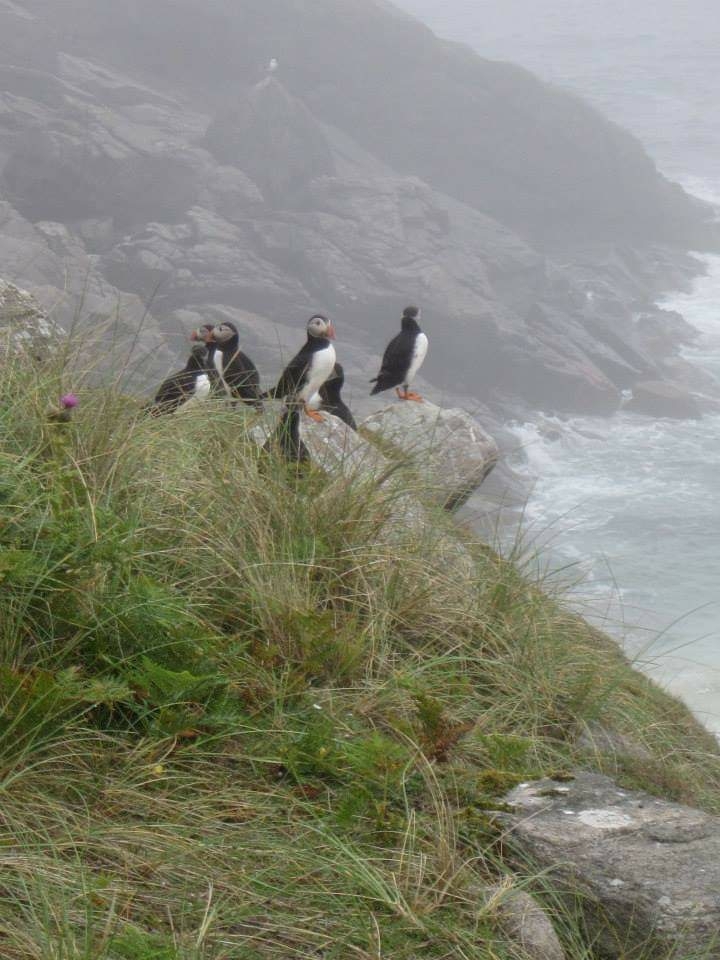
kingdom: Animalia
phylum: Chordata
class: Aves
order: Charadriiformes
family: Alcidae
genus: Fratercula
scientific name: Fratercula arctica
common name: Atlantic puffin
